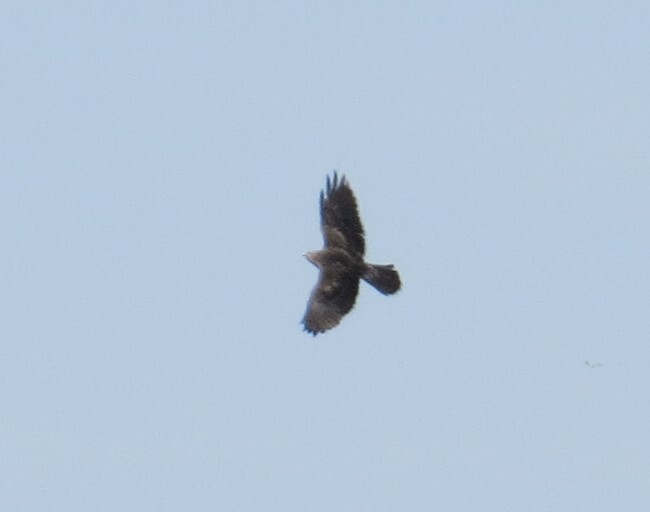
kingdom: Animalia
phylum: Chordata
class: Aves
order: Accipitriformes
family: Accipitridae
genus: Buteo
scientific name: Buteo swainsoni
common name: Swainson's hawk
